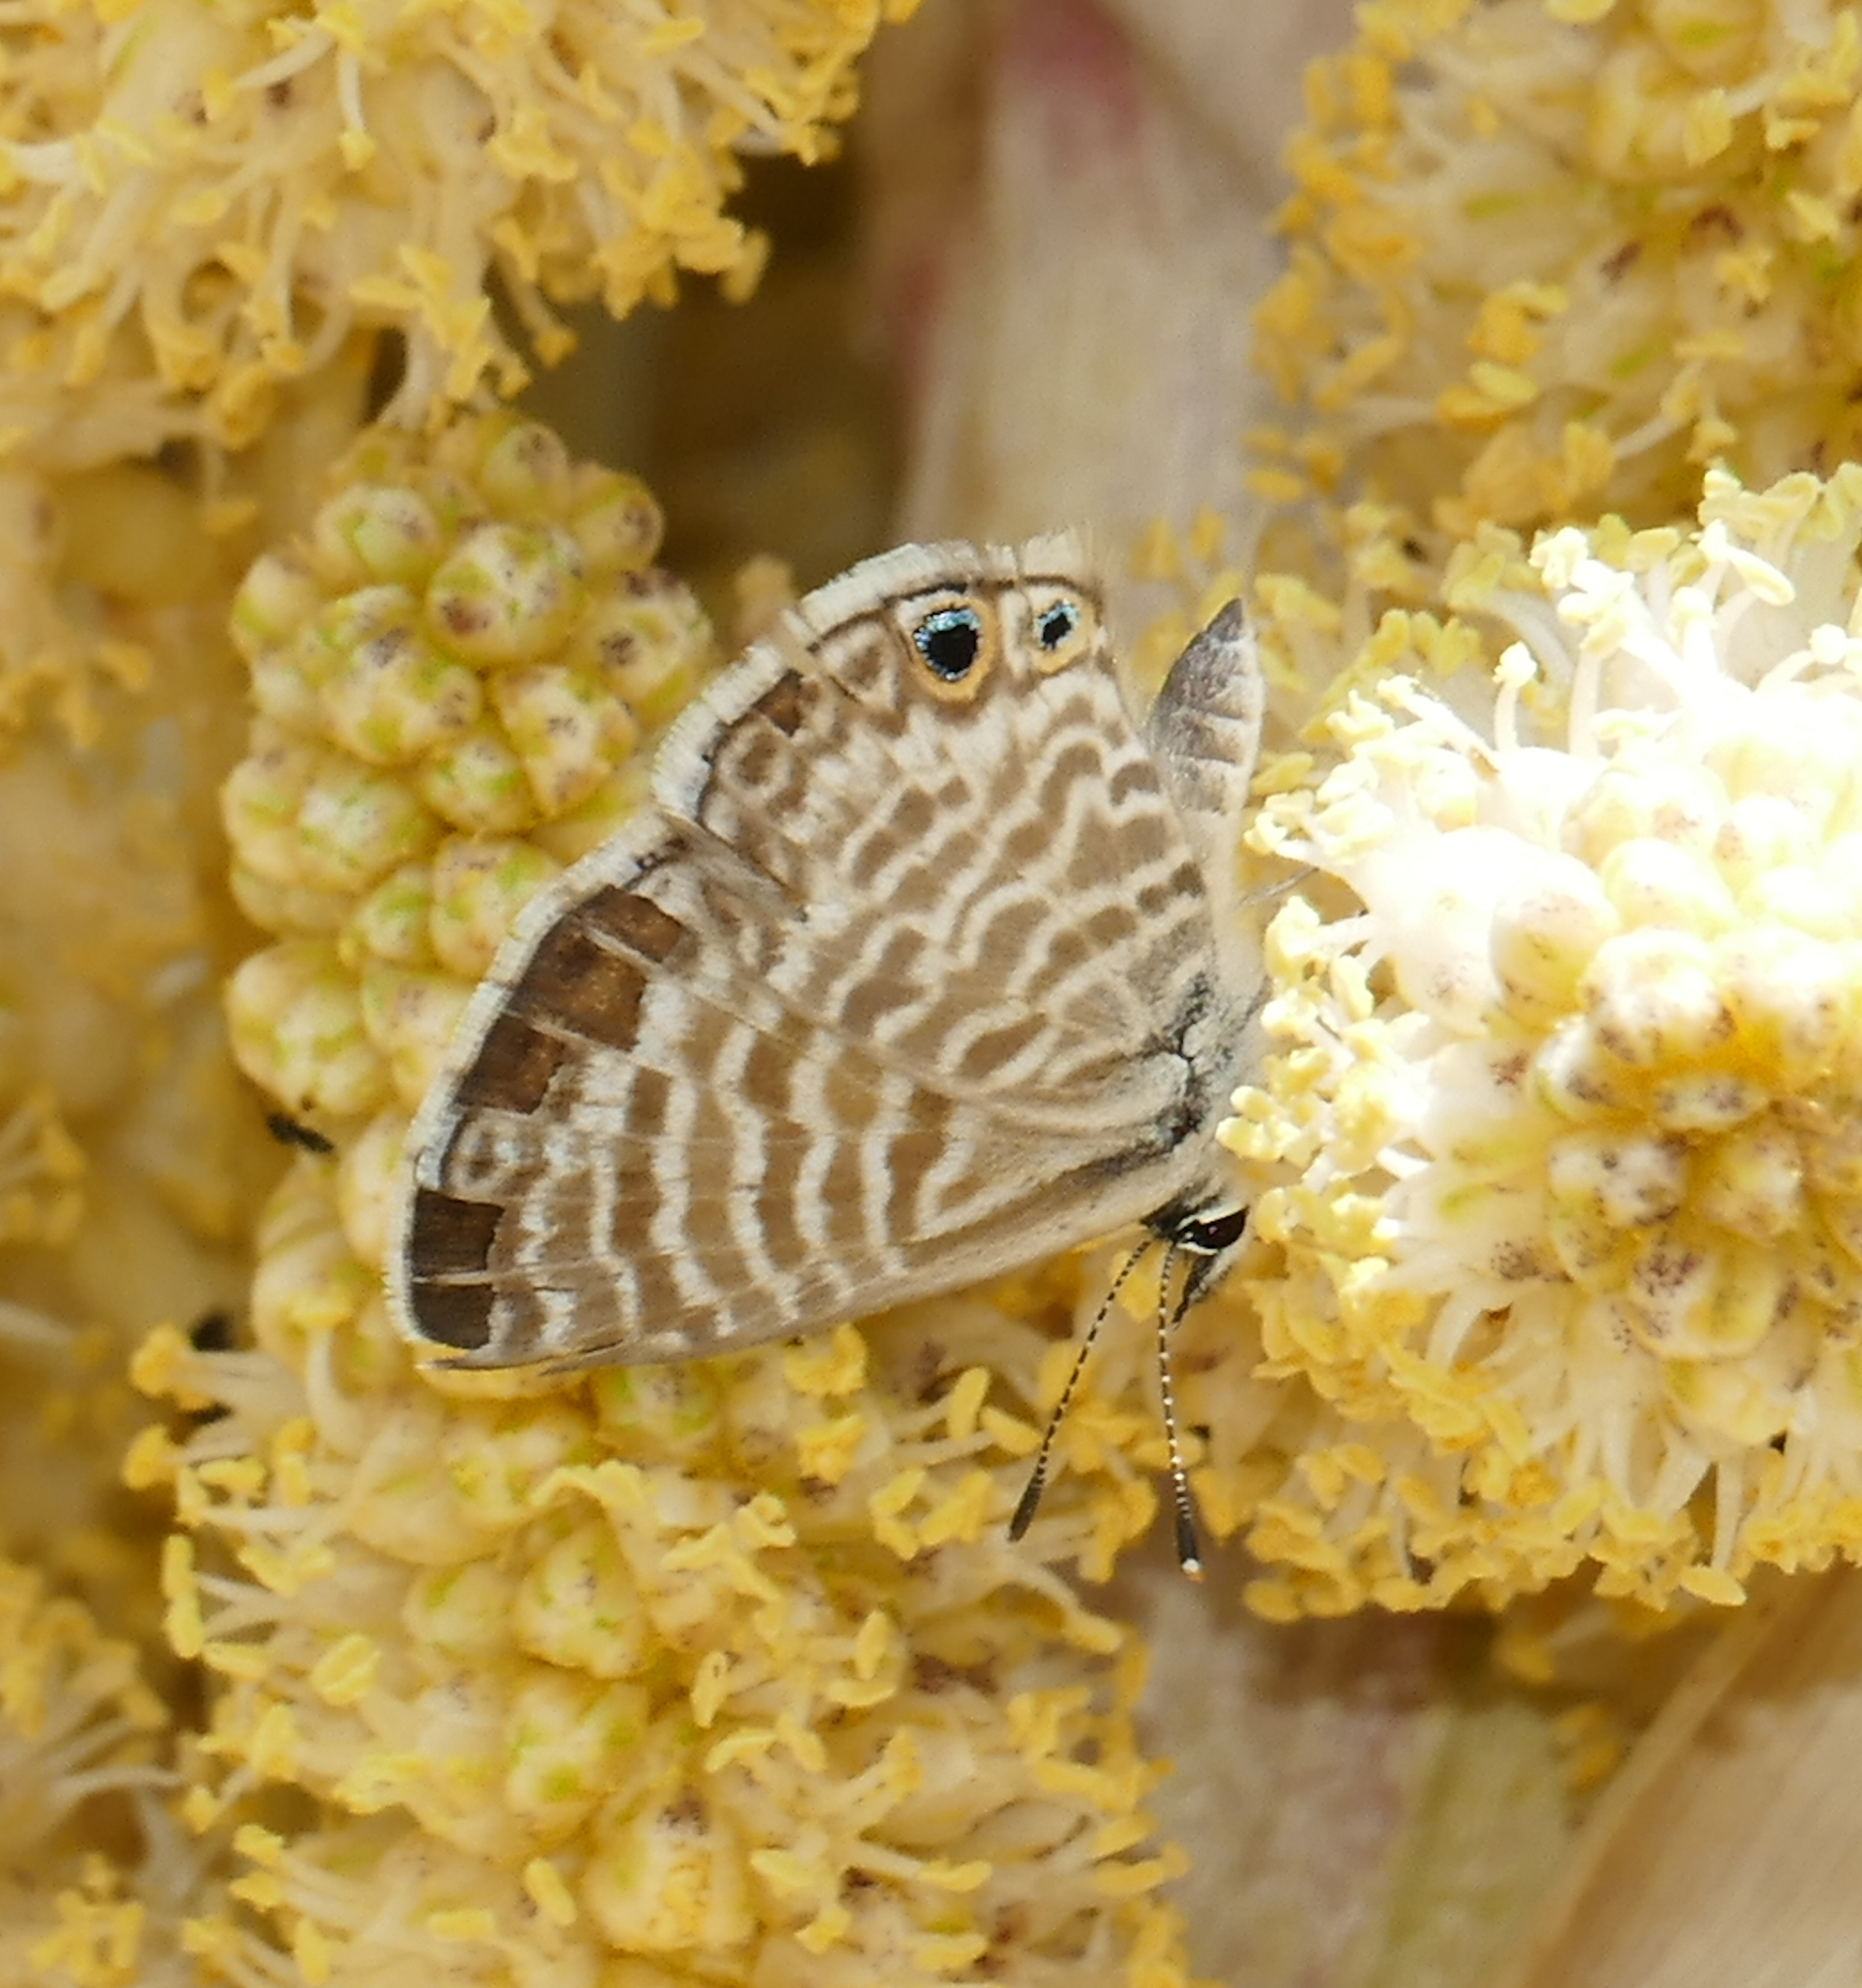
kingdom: Animalia
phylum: Arthropoda
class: Insecta
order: Lepidoptera
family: Lycaenidae
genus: Leptotes
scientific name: Leptotes marina
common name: Marine blue
